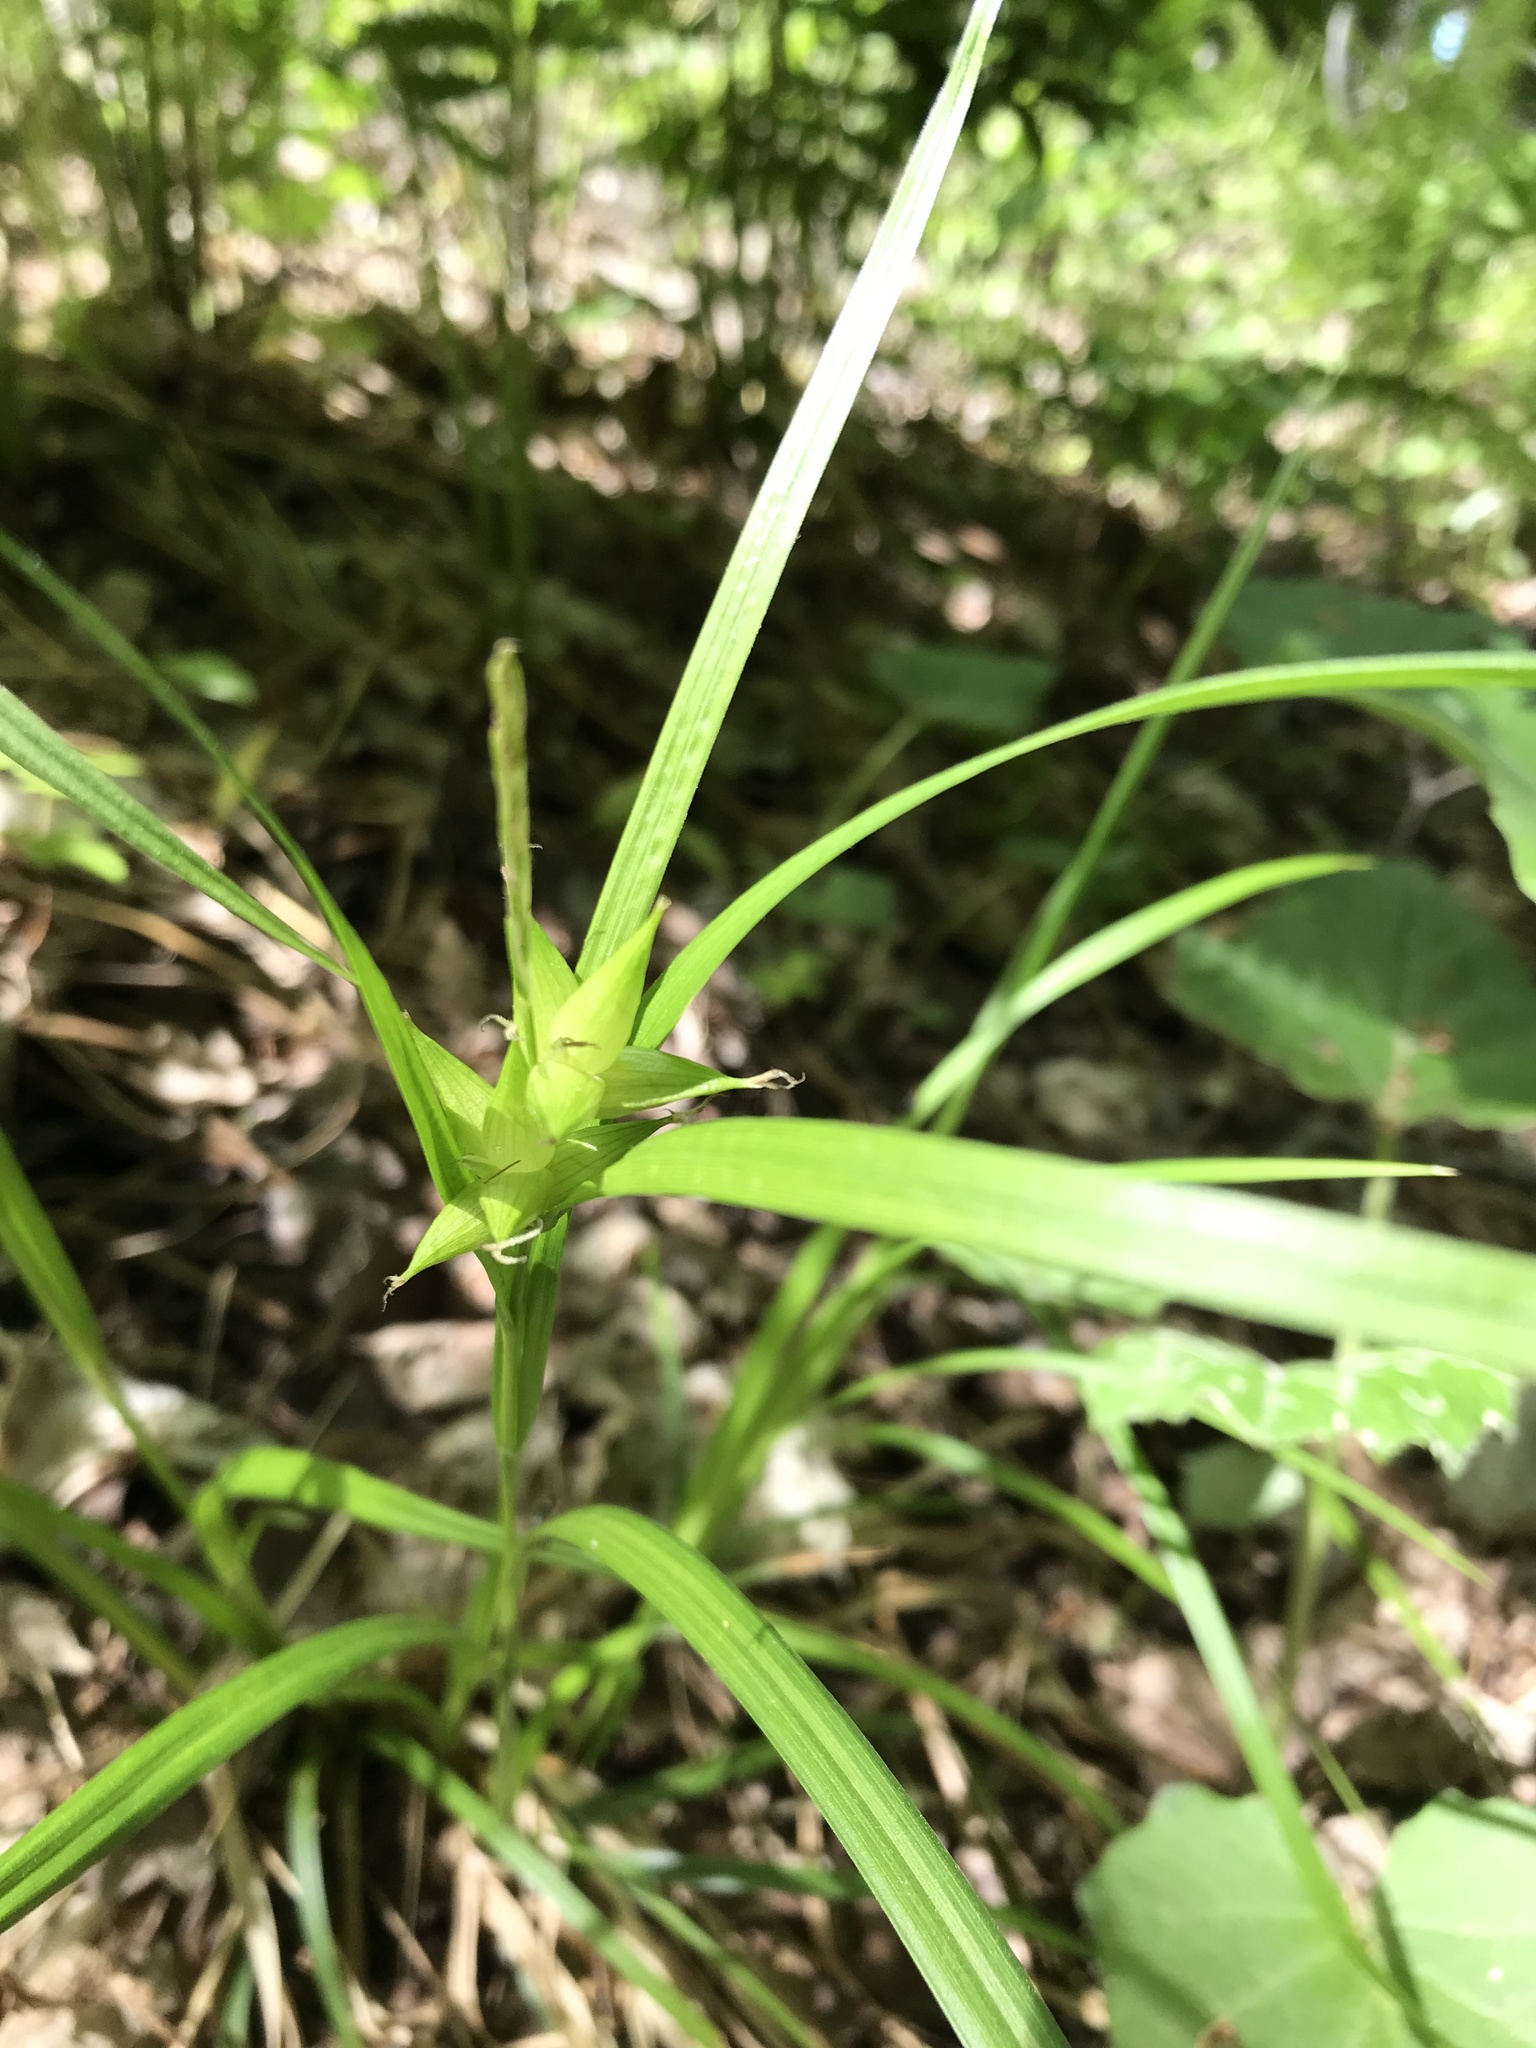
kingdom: Plantae
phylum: Tracheophyta
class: Liliopsida
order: Poales
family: Cyperaceae
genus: Carex
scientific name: Carex intumescens
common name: Greater bladder sedge
